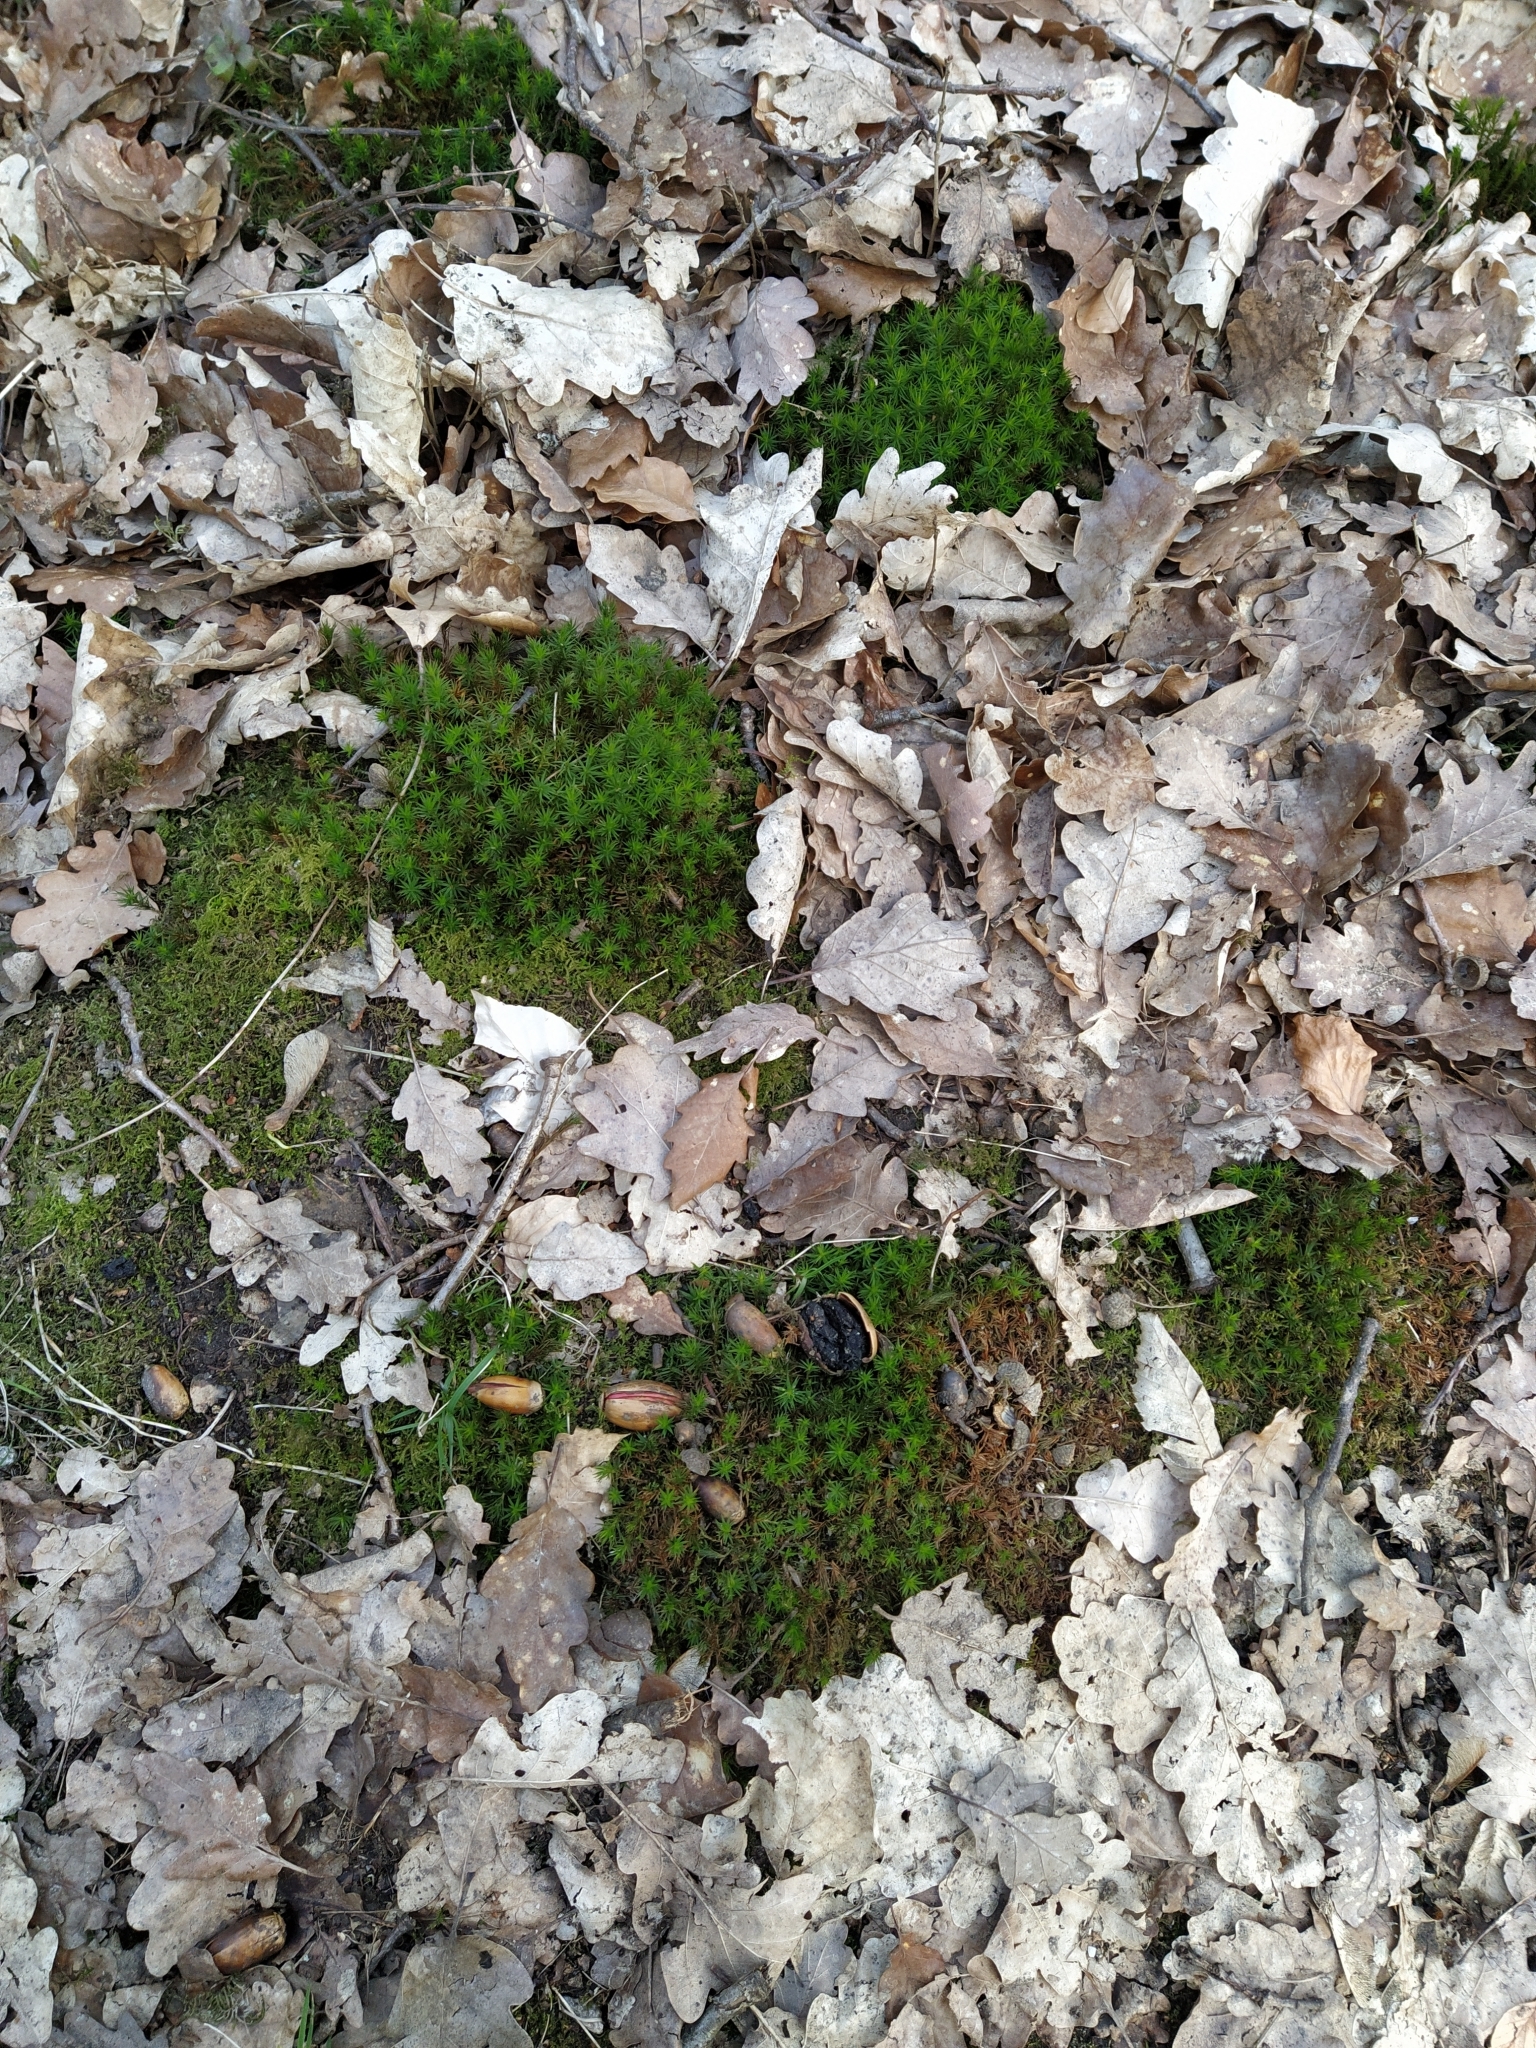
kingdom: Plantae
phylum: Bryophyta
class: Polytrichopsida
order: Polytrichales
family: Polytrichaceae
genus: Polytrichum
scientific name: Polytrichum formosum
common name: Bank haircap moss
